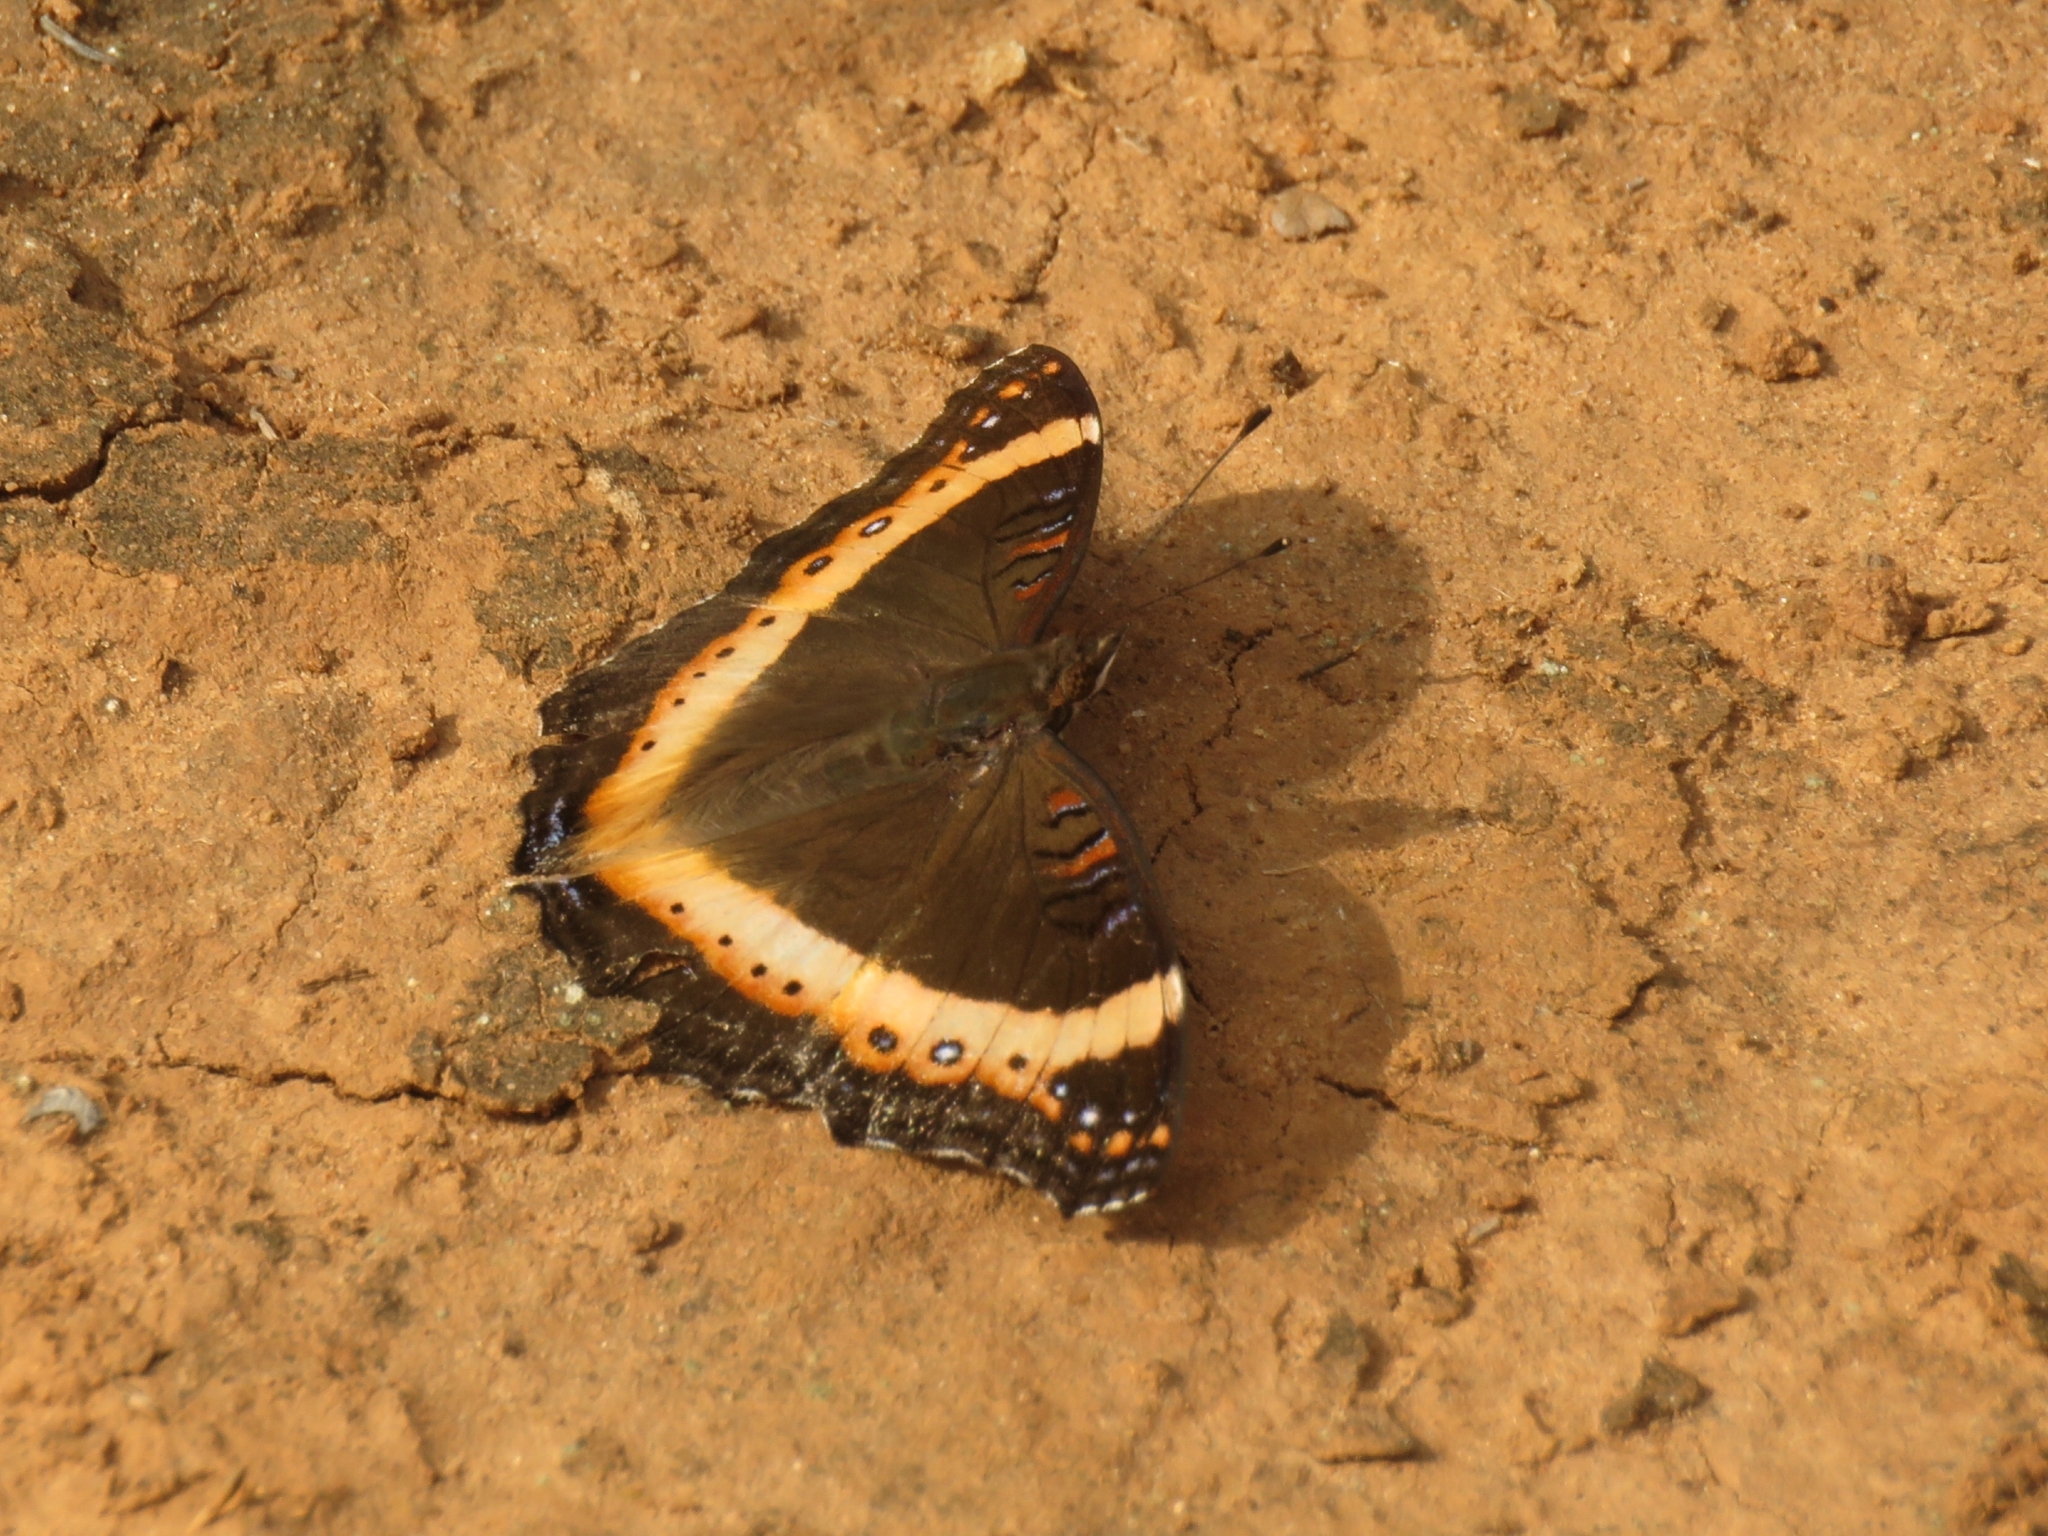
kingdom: Animalia
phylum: Arthropoda
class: Insecta
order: Lepidoptera
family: Nymphalidae
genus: Junonia
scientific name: Junonia archesia
